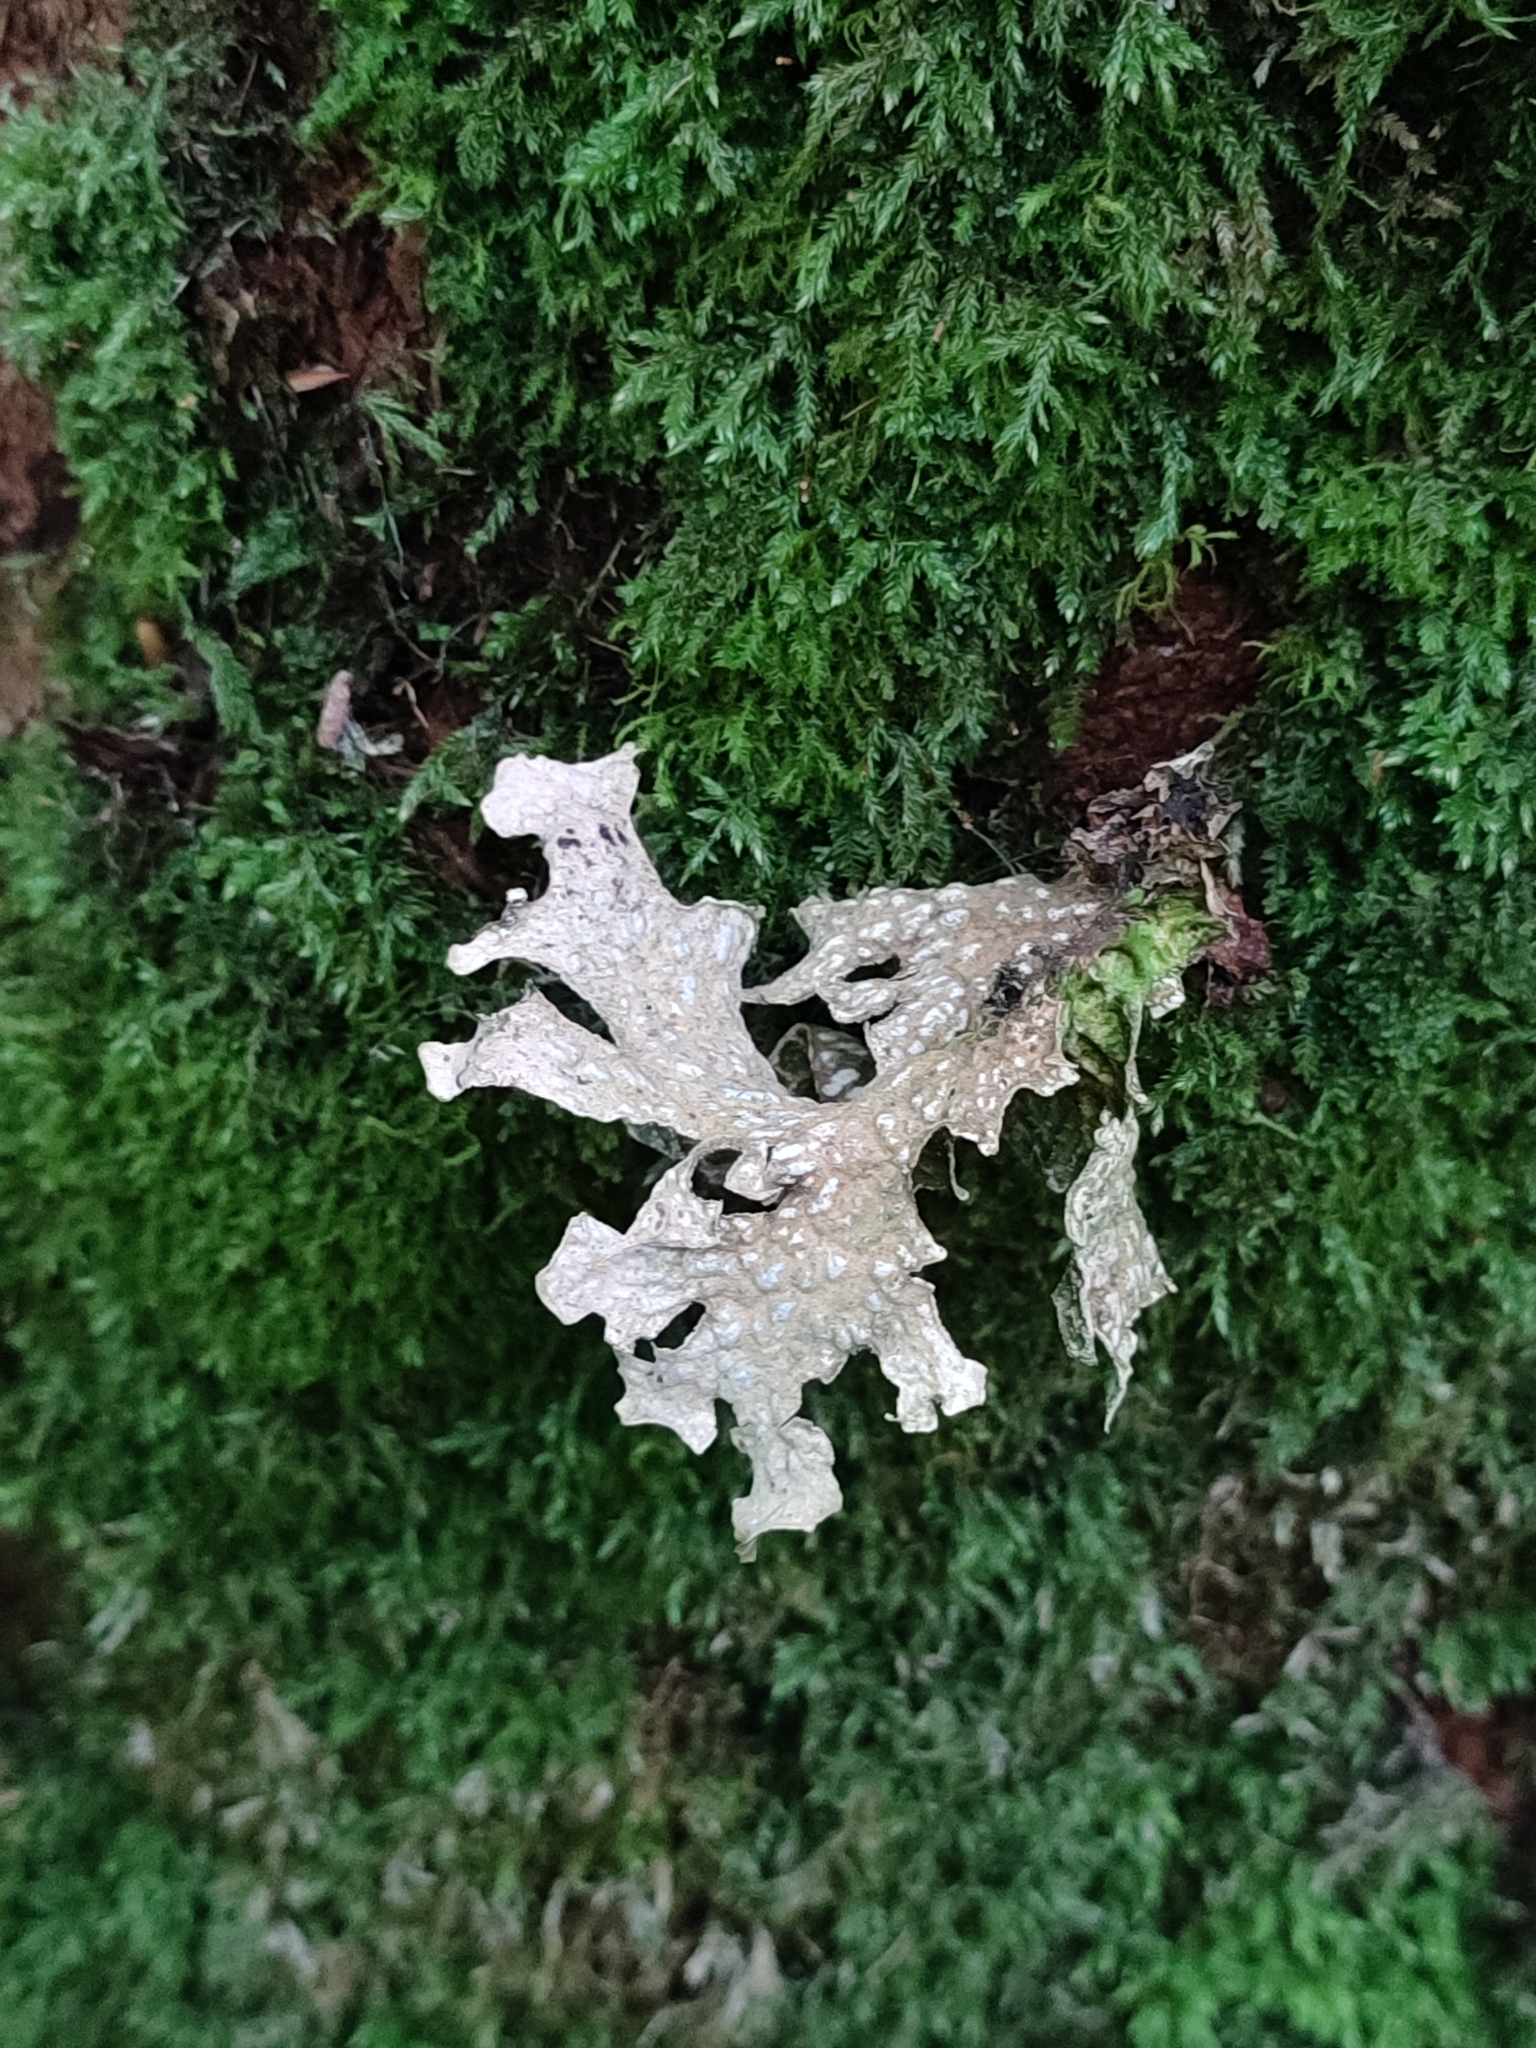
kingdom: Fungi
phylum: Ascomycota
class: Lecanoromycetes
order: Peltigerales
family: Lobariaceae
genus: Lobaria
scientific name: Lobaria pulmonaria
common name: Lungwort
